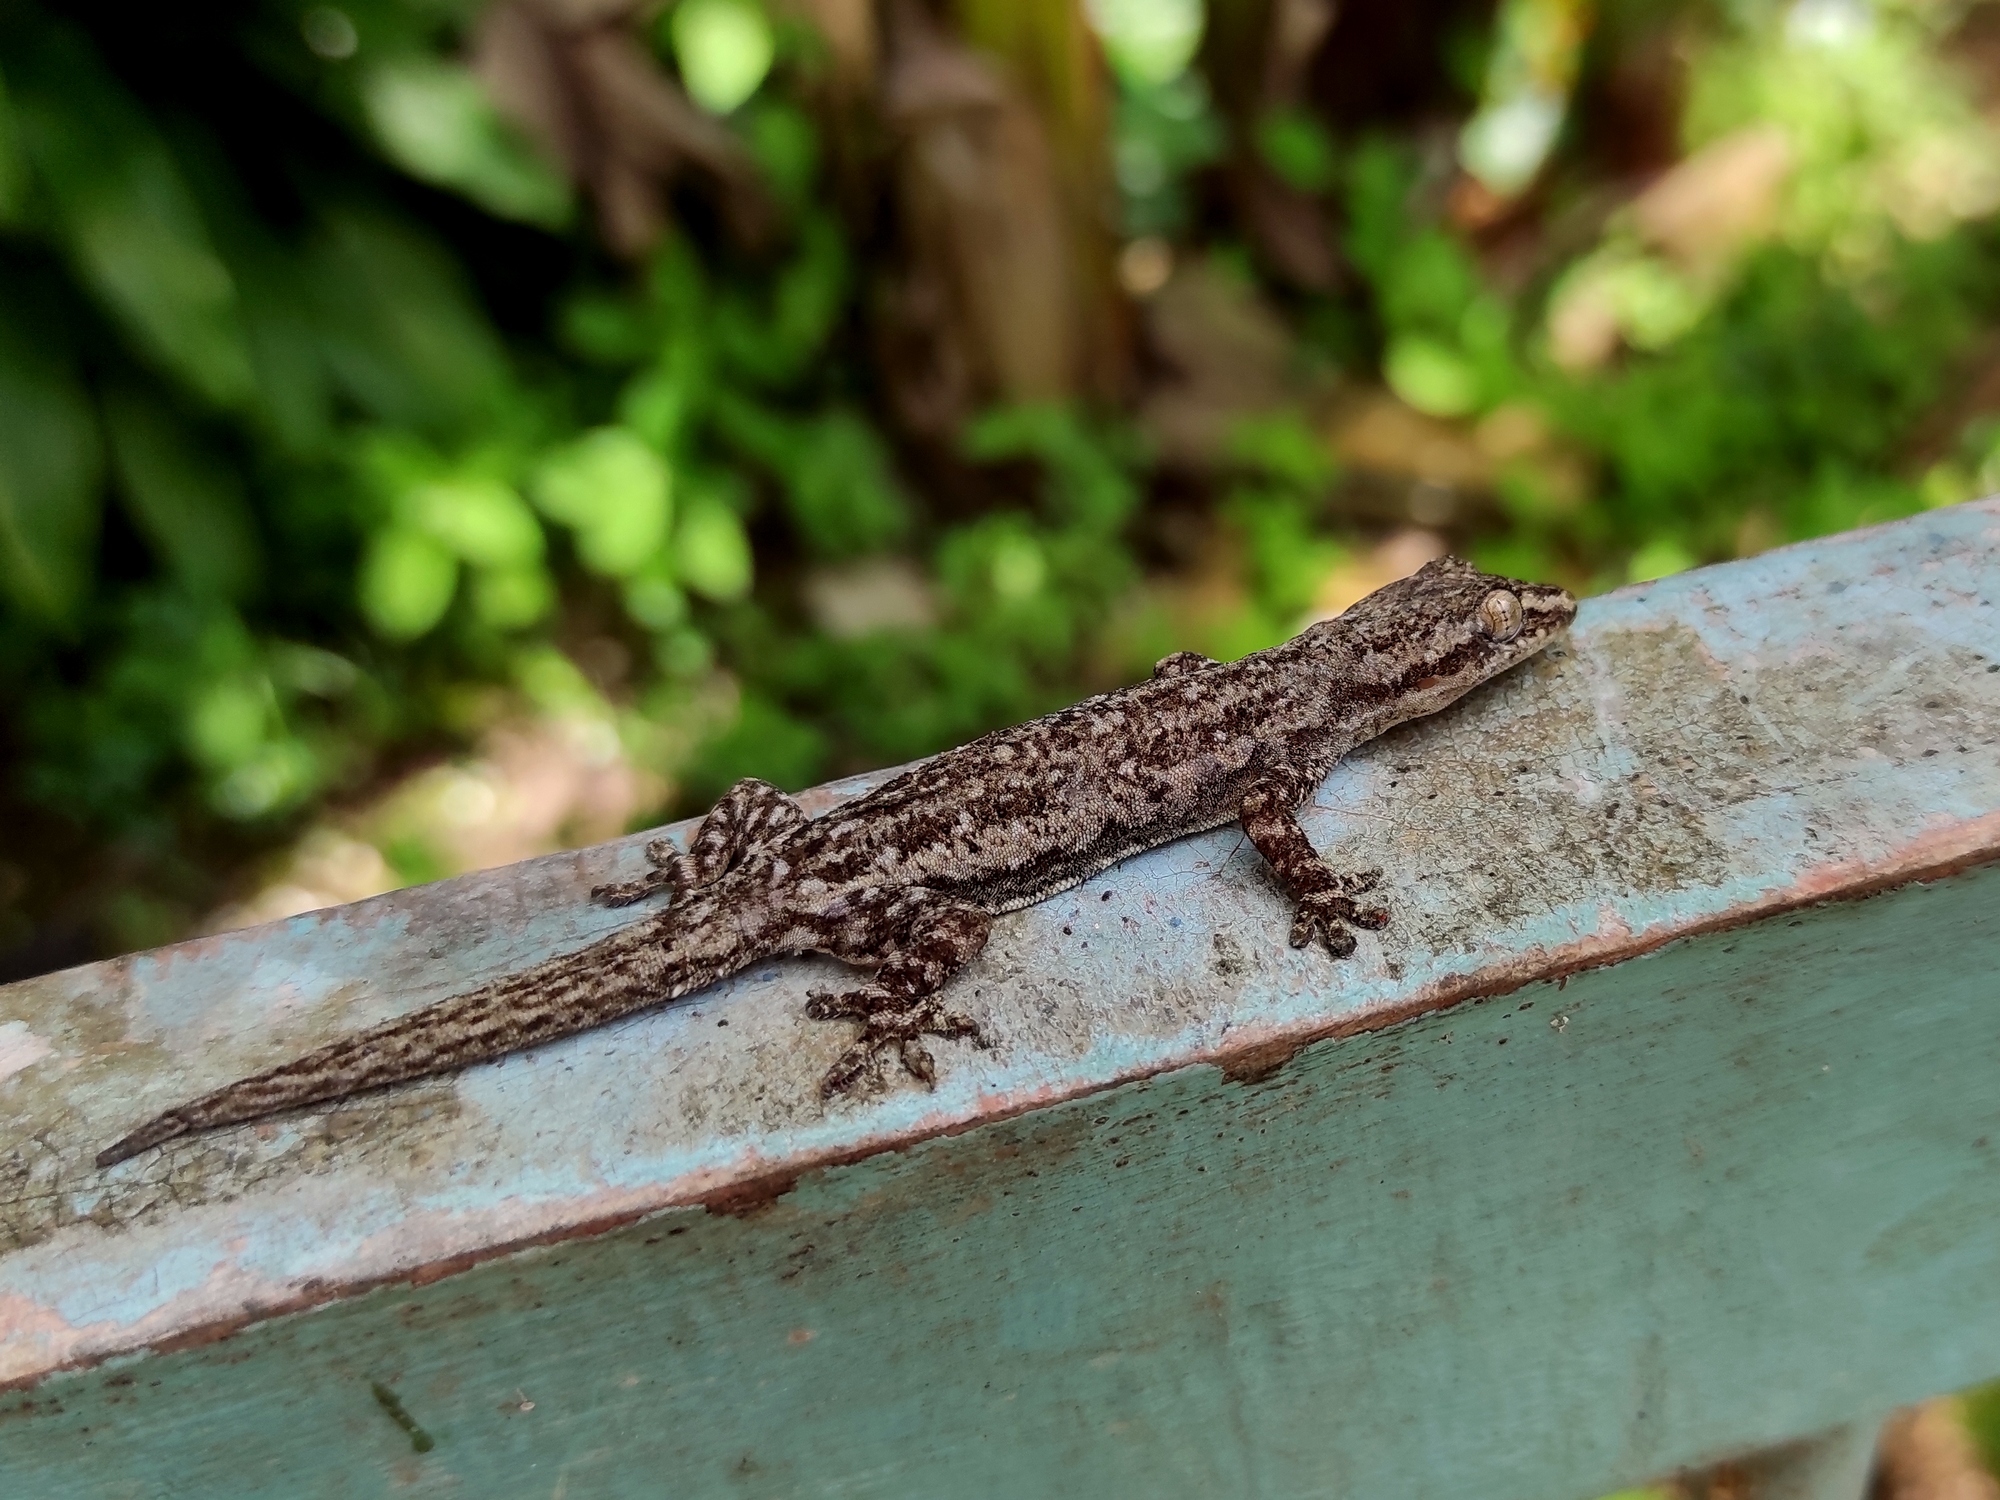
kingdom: Animalia
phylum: Chordata
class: Squamata
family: Gekkonidae
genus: Hemidactylus
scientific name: Hemidactylus frenatus
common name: Common house gecko
